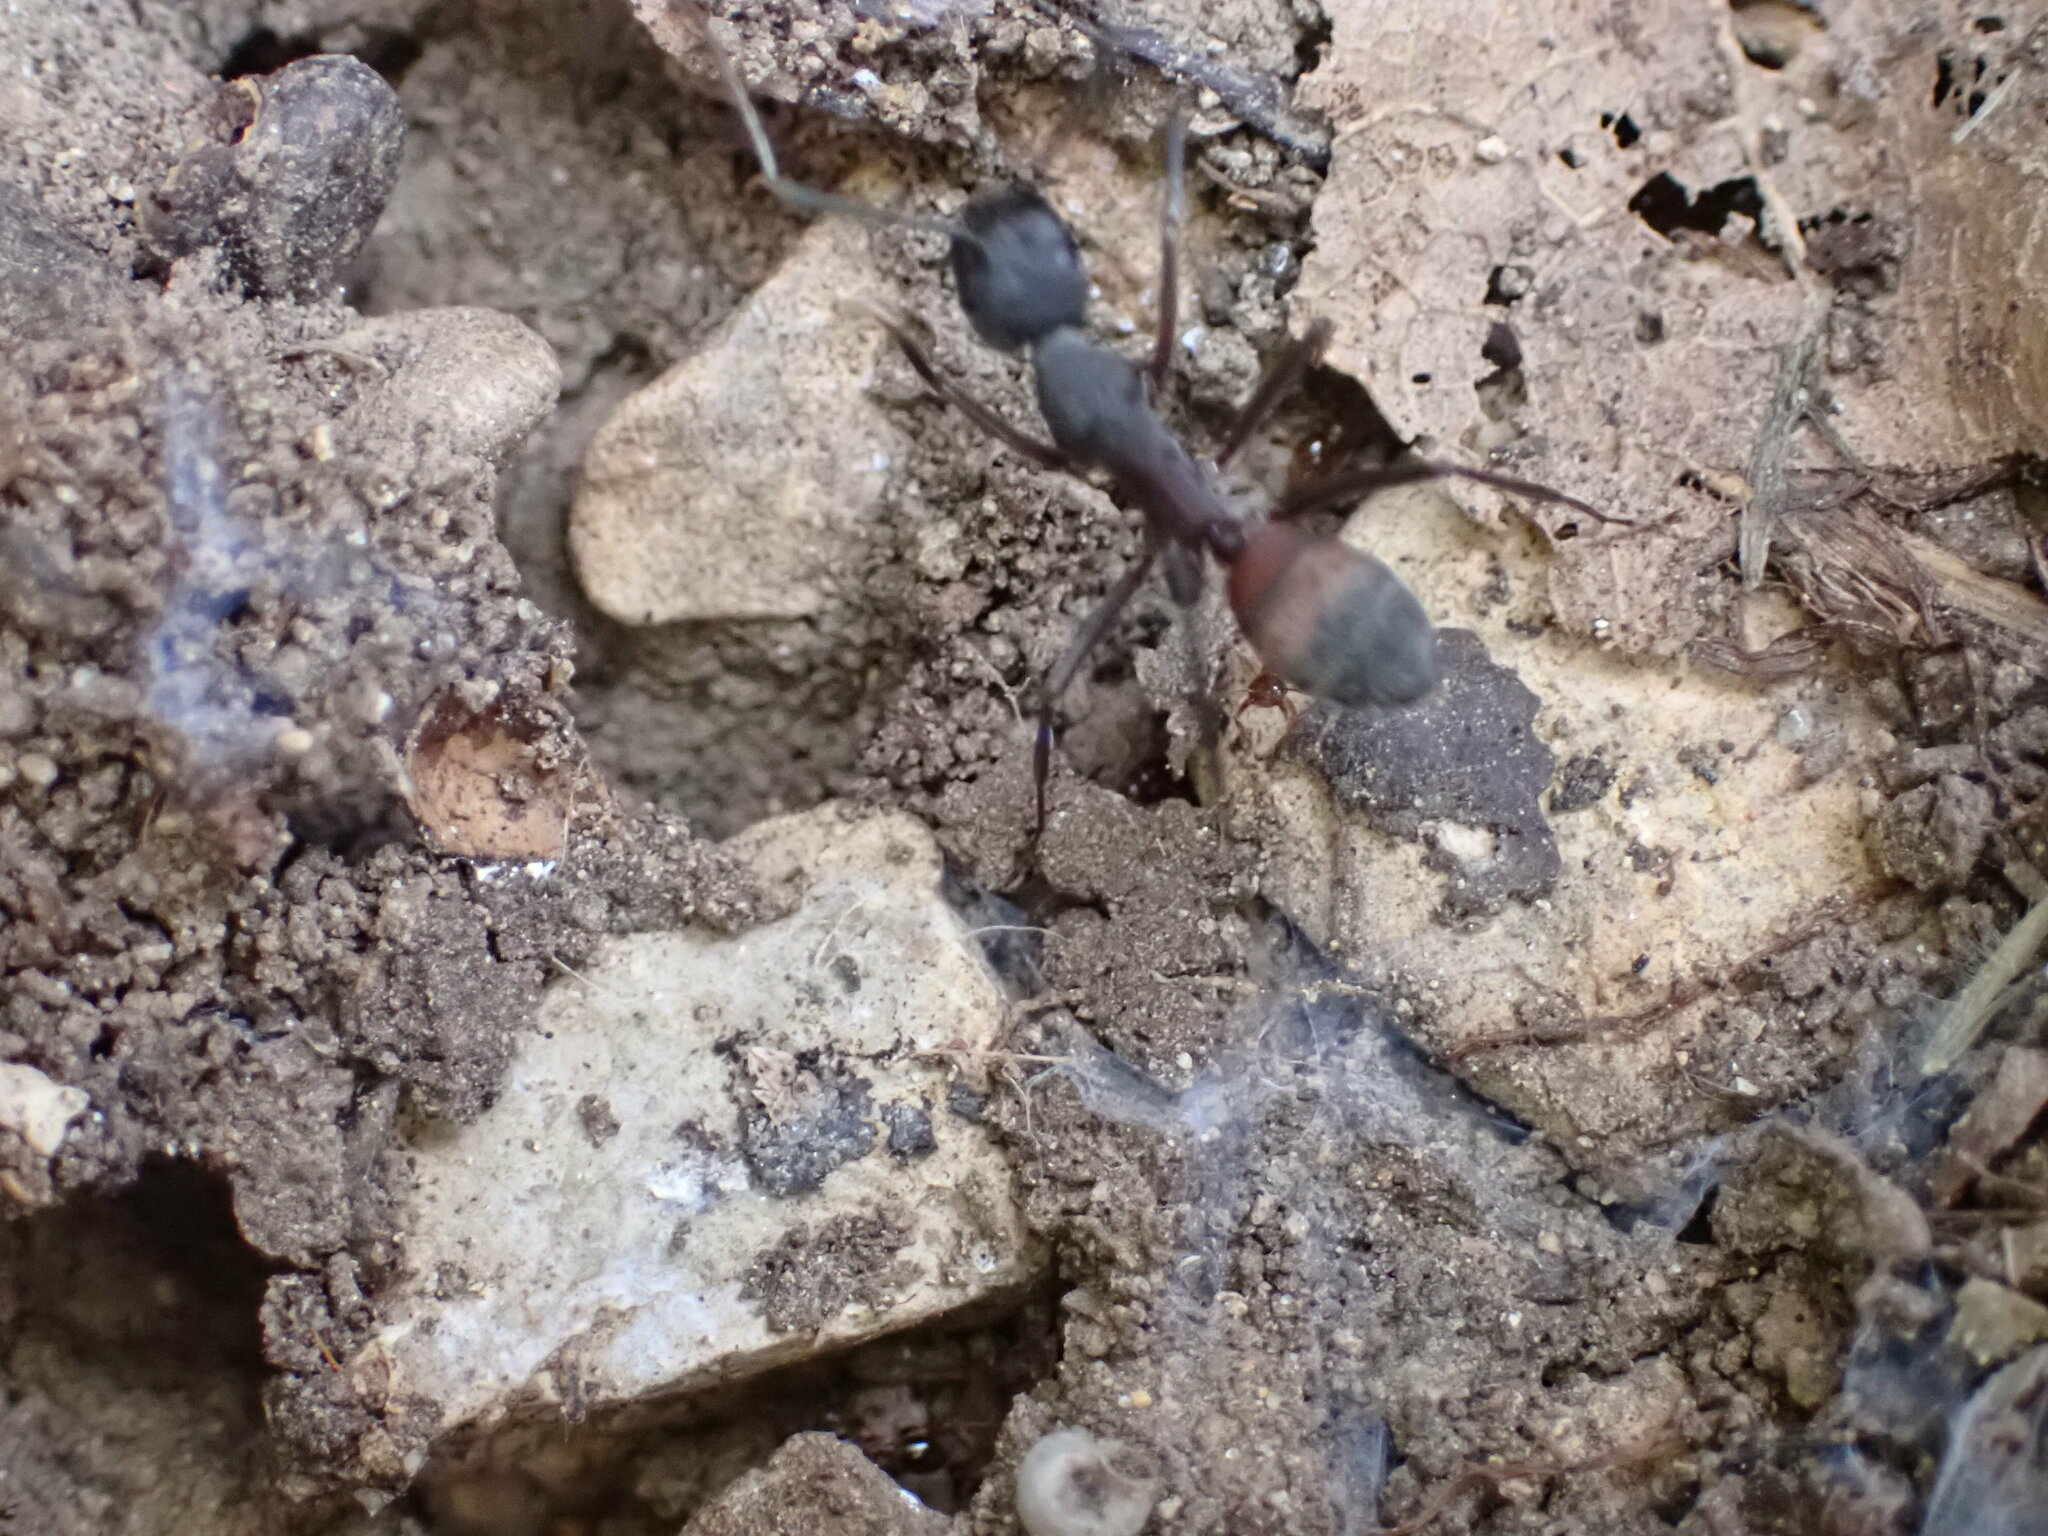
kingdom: Animalia
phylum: Arthropoda
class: Insecta
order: Hymenoptera
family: Formicidae
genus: Camponotus
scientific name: Camponotus cruentatus
